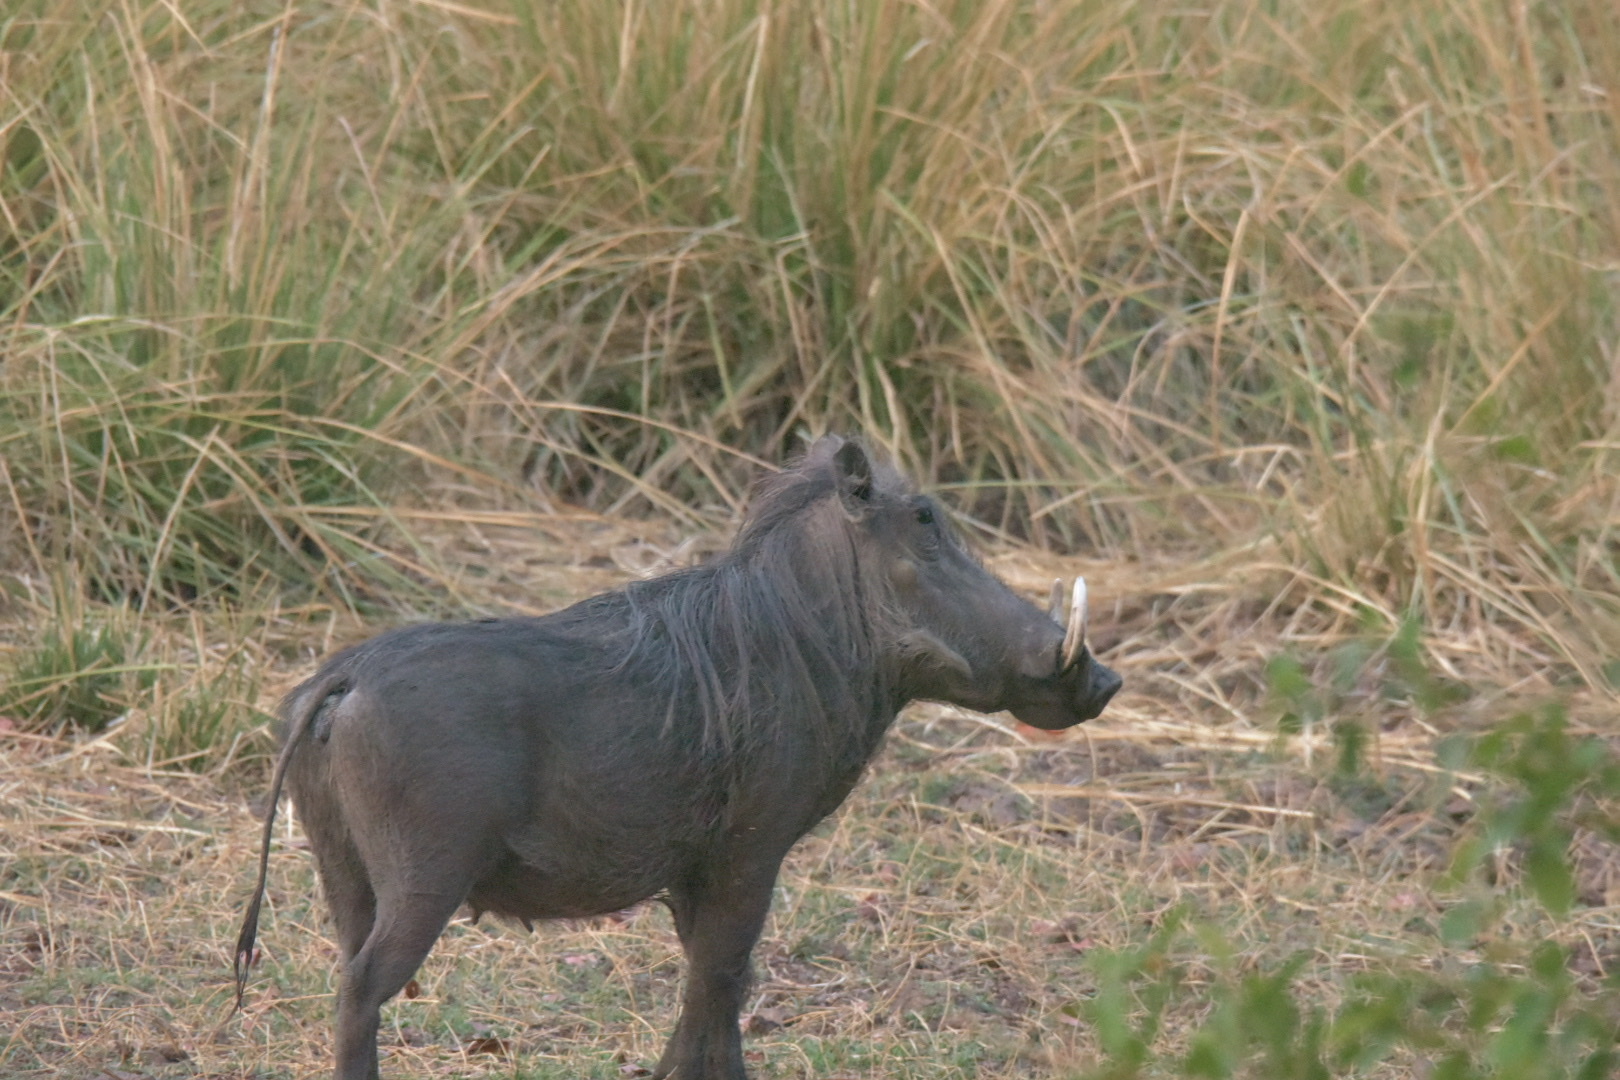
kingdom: Animalia
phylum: Chordata
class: Mammalia
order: Artiodactyla
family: Suidae
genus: Phacochoerus
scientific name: Phacochoerus africanus
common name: Common warthog
